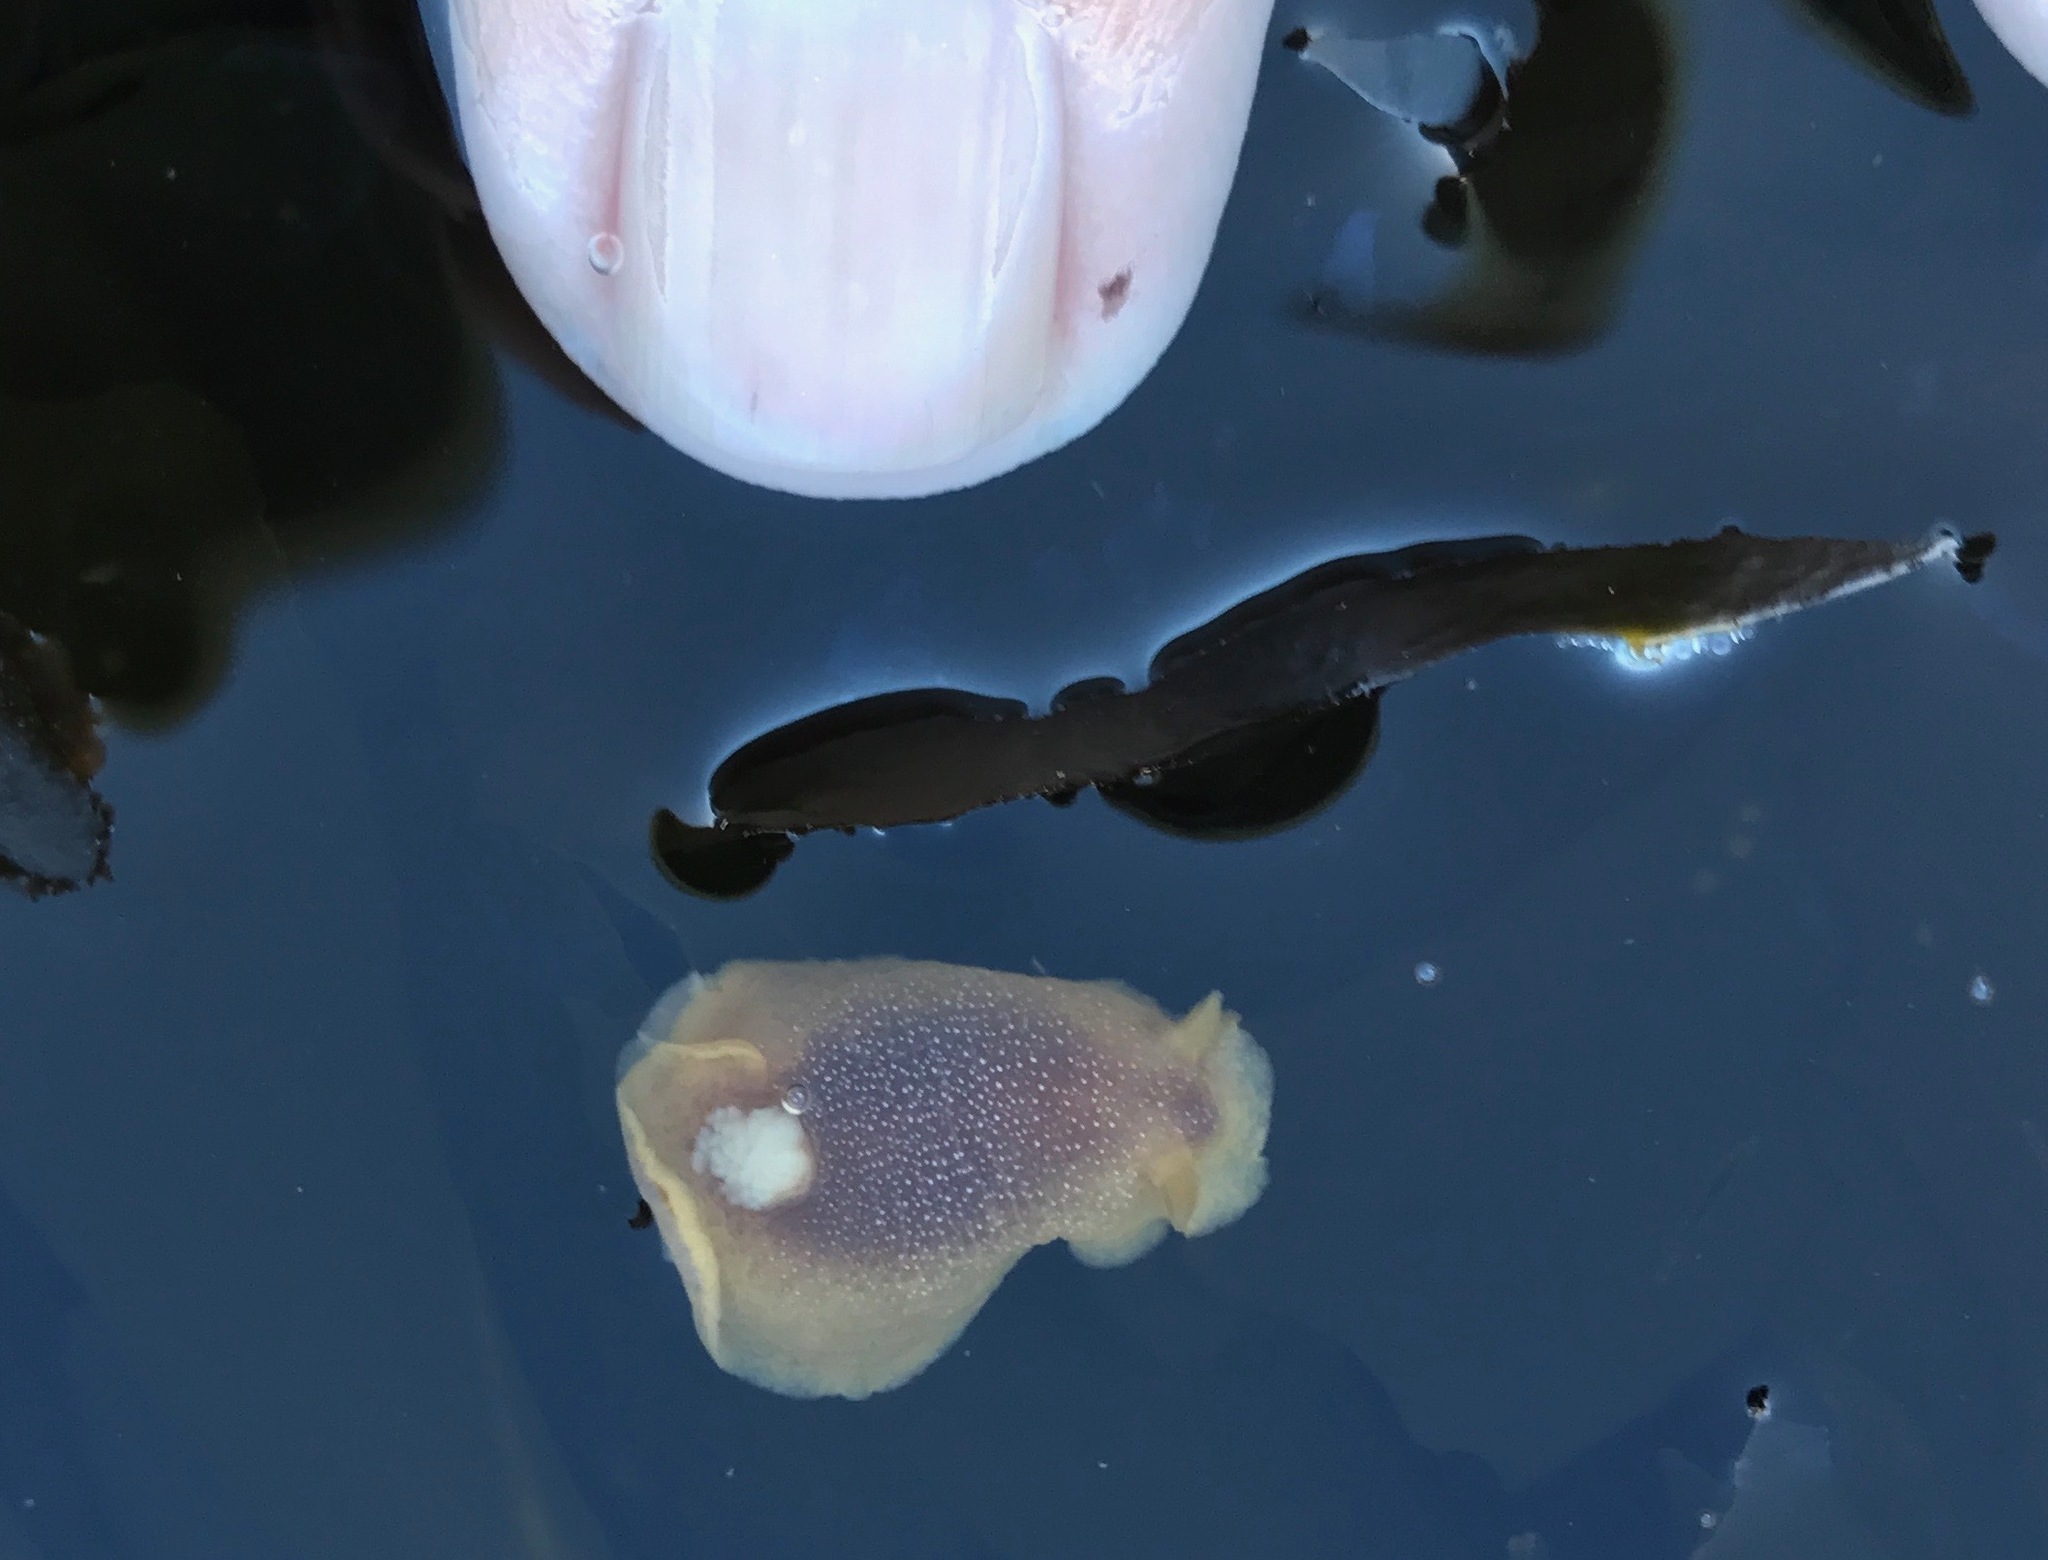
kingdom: Animalia
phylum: Mollusca
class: Gastropoda
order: Nudibranchia
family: Dendrodorididae
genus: Doriopsilla
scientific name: Doriopsilla albopunctata
